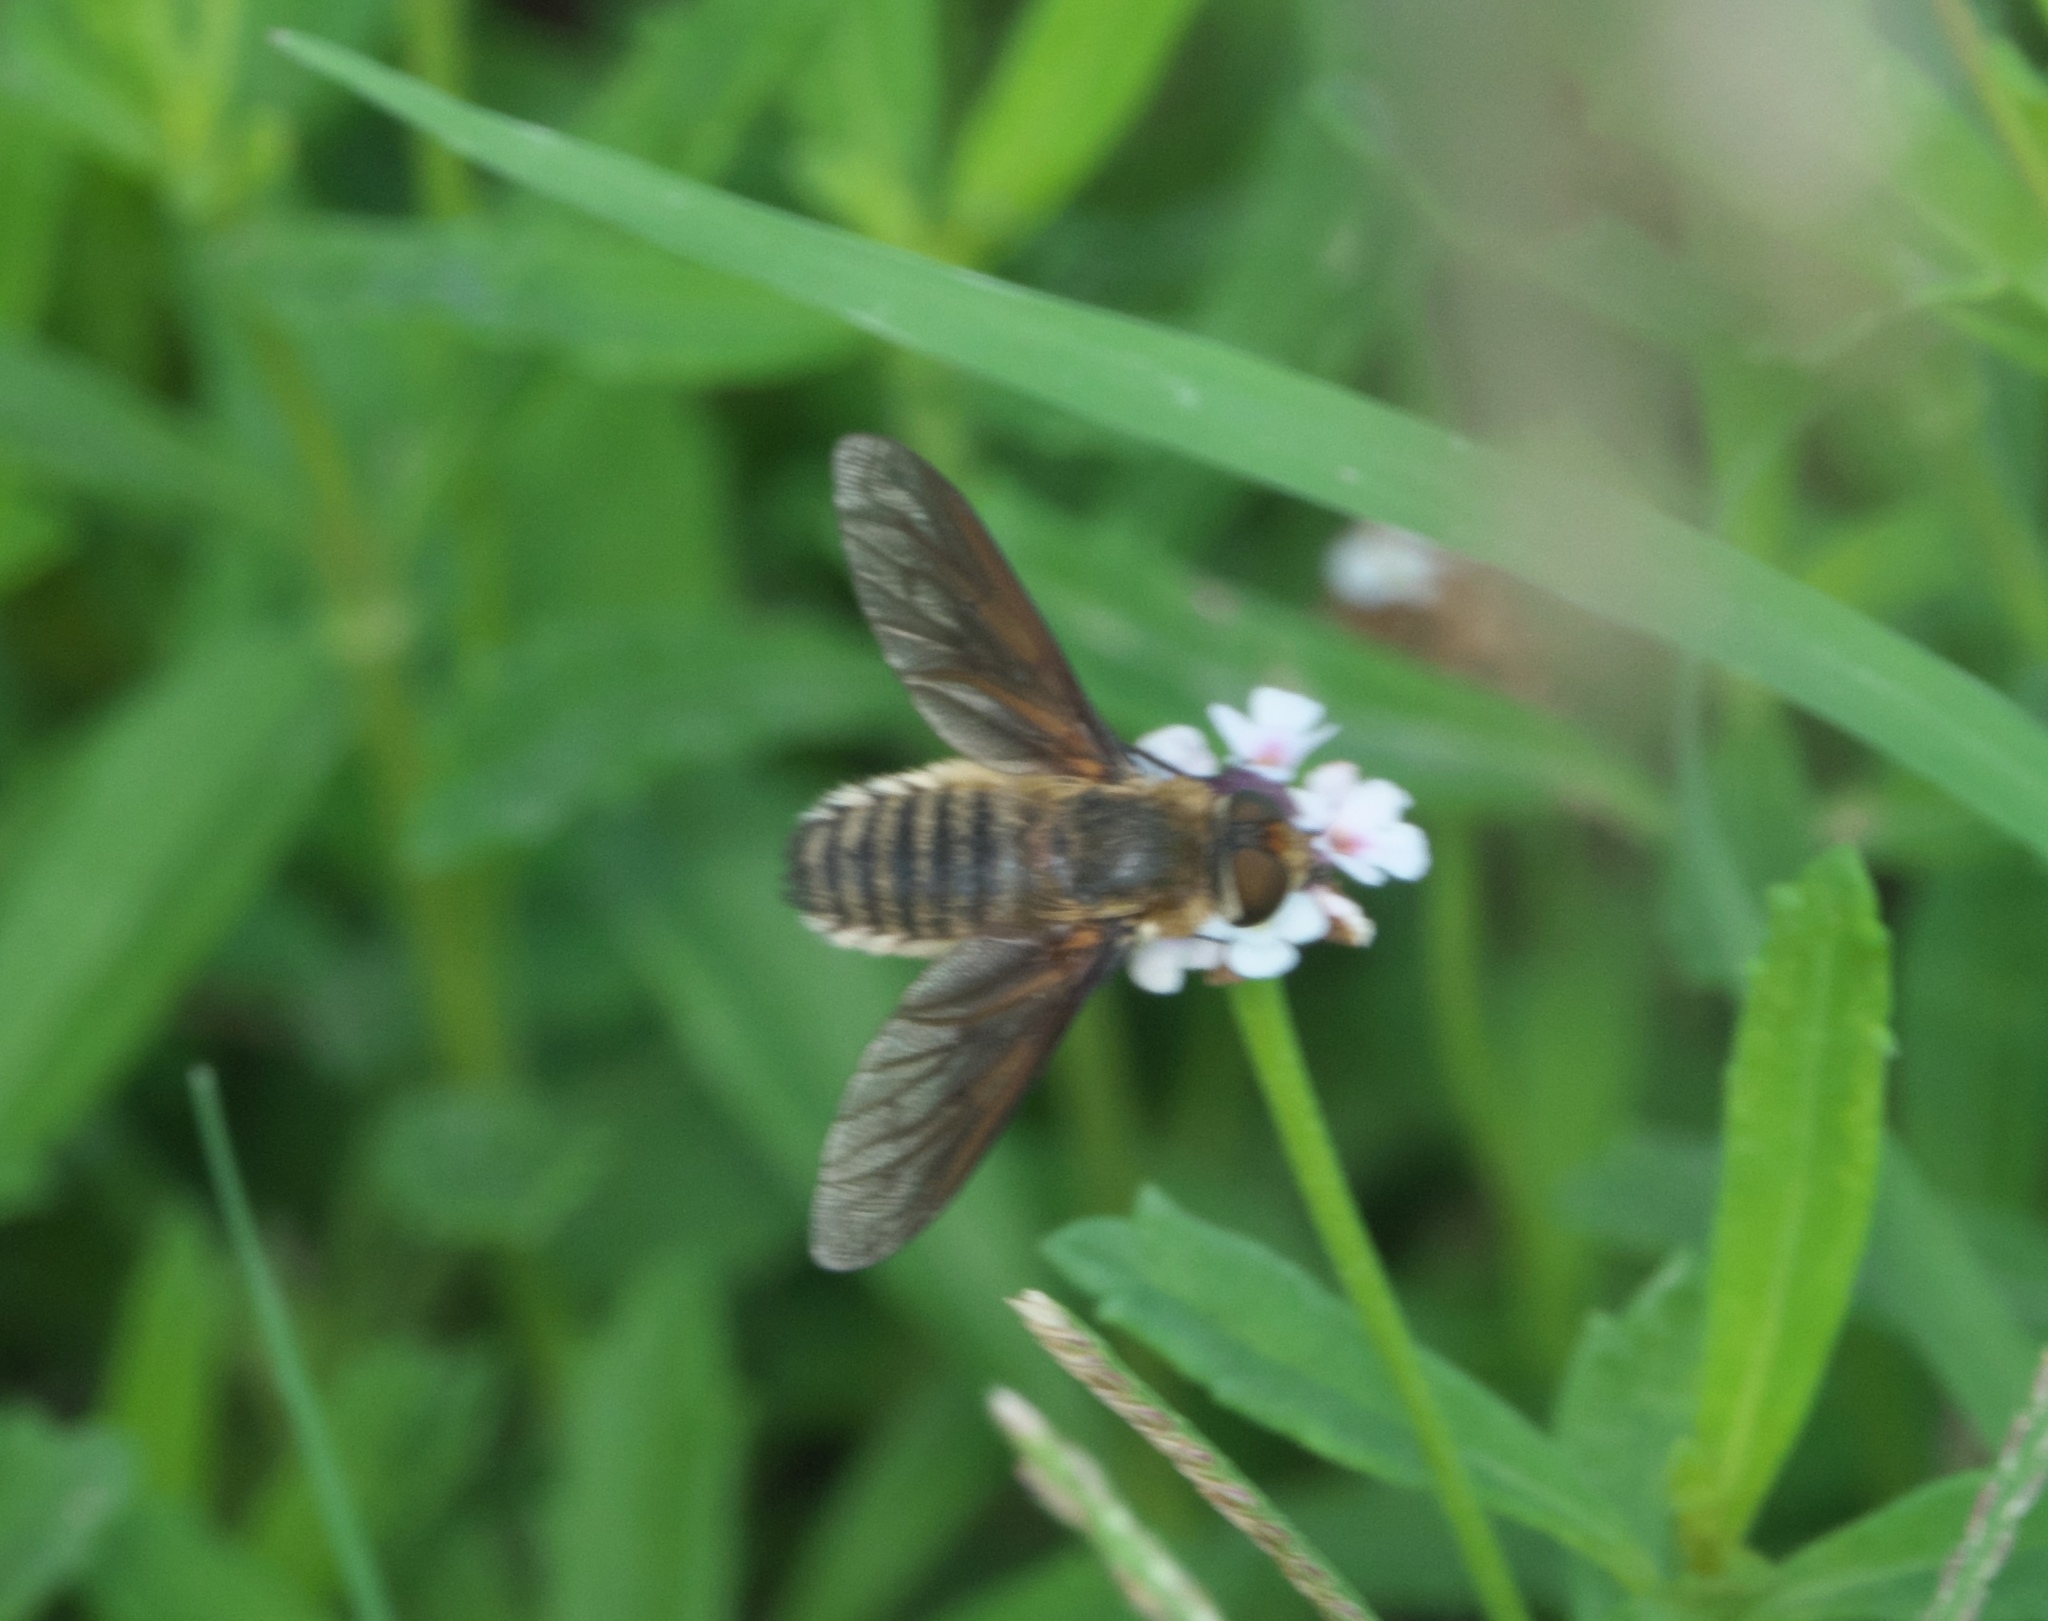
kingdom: Animalia
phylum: Arthropoda
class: Insecta
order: Diptera
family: Bombyliidae
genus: Poecilanthrax
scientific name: Poecilanthrax lucifer
